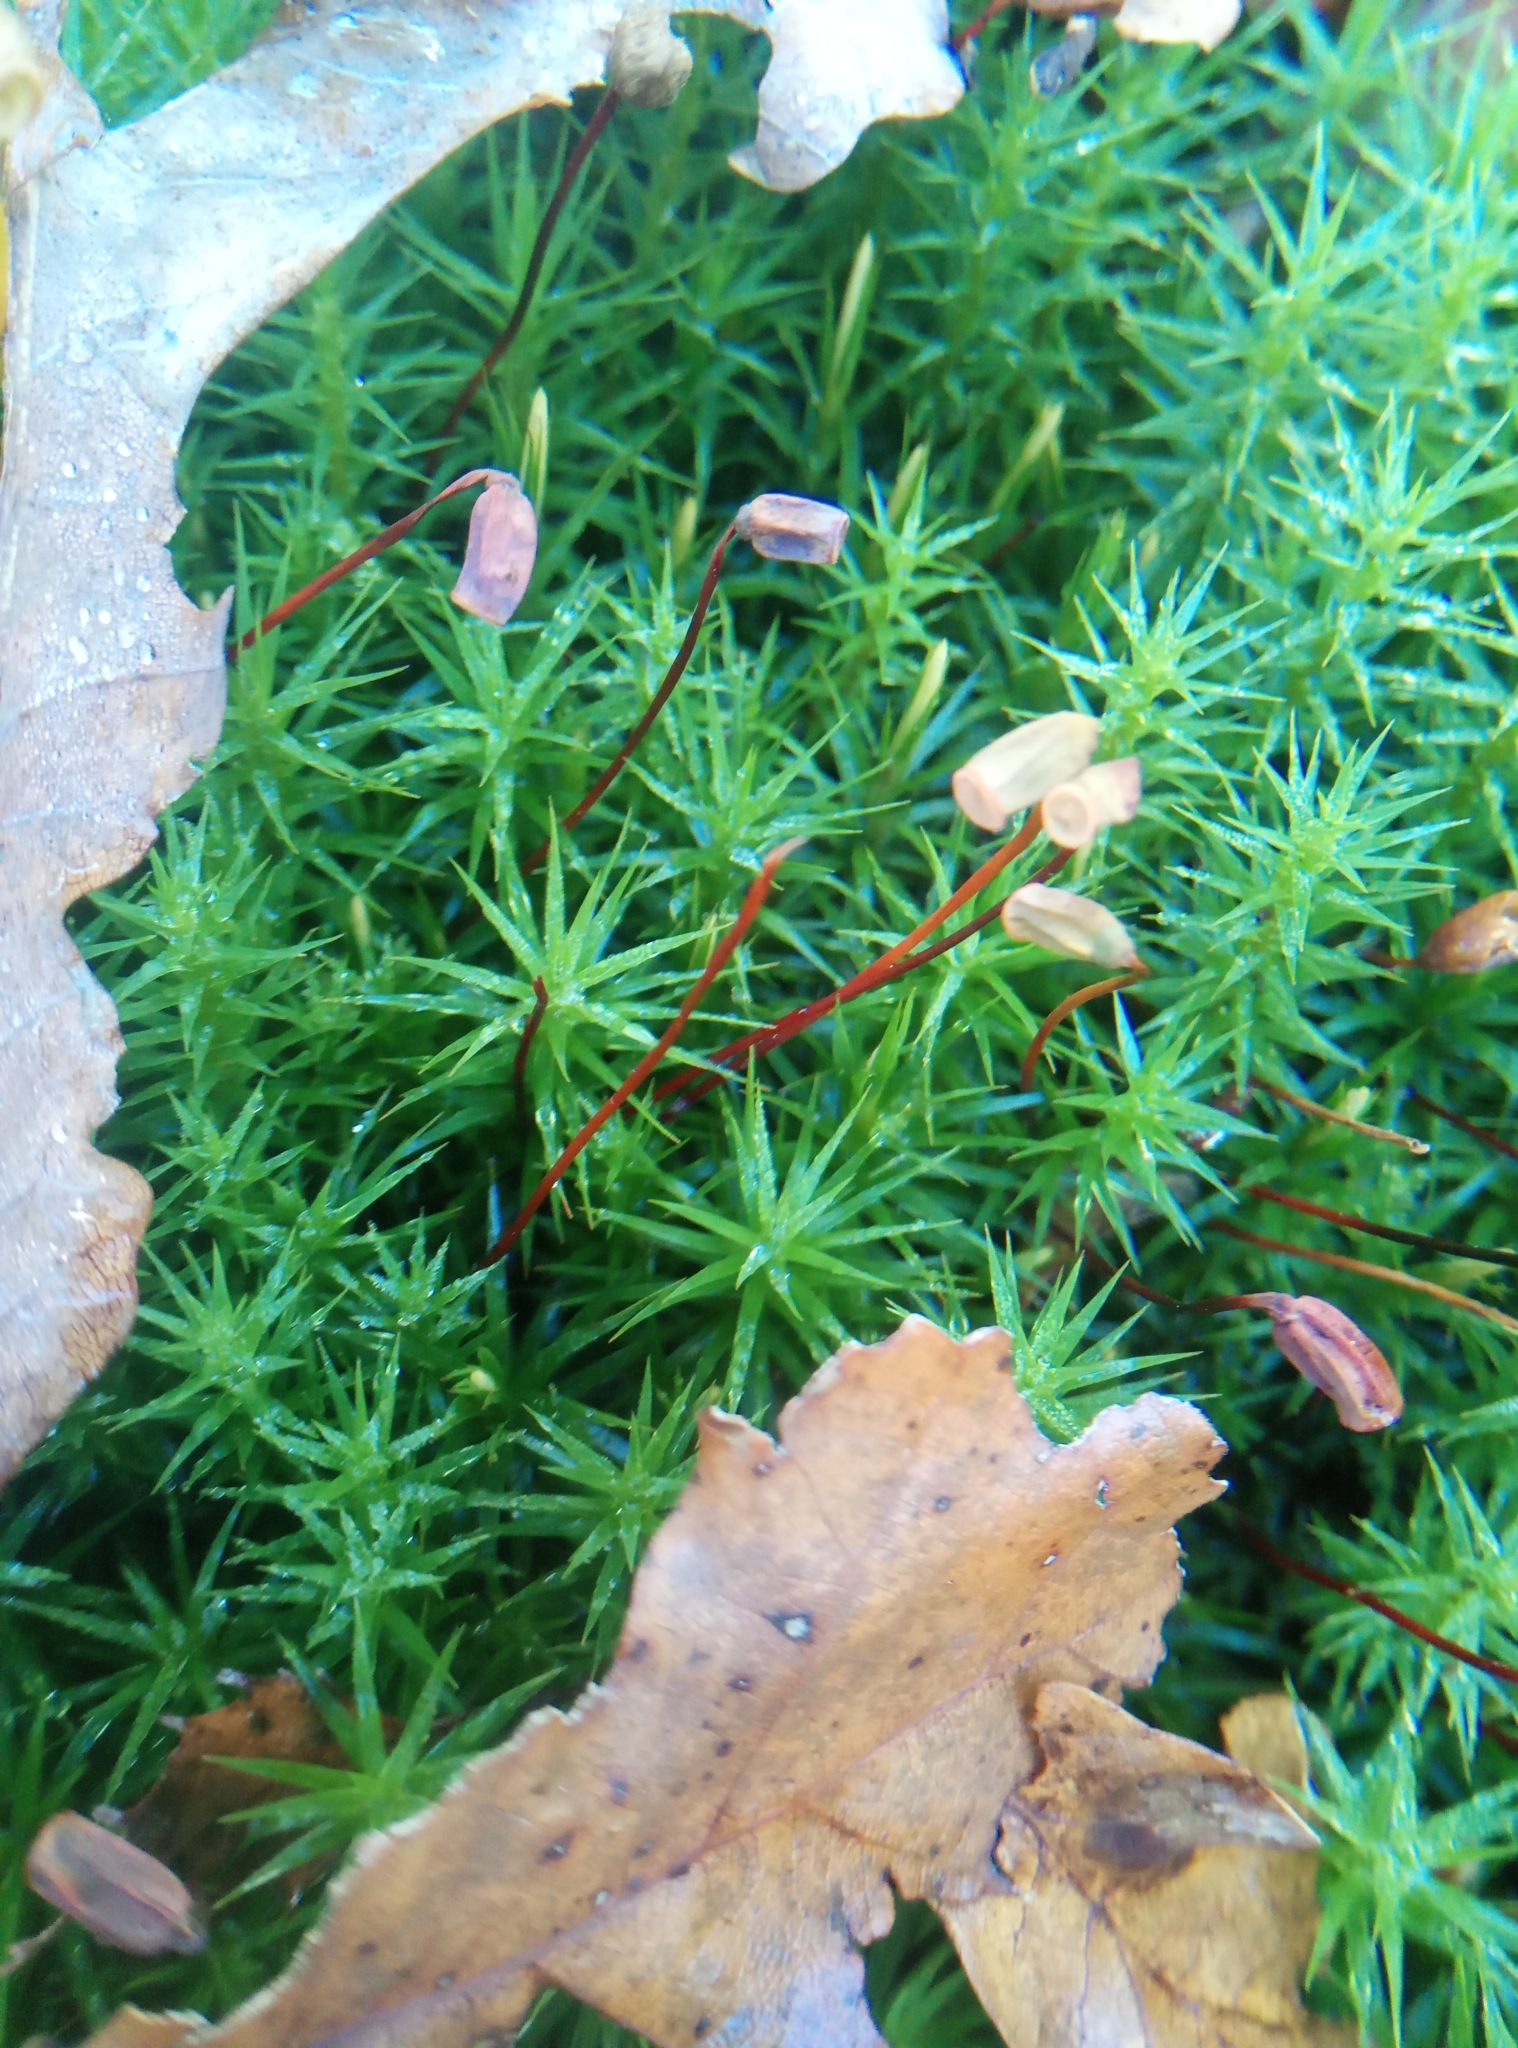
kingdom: Plantae
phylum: Bryophyta
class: Polytrichopsida
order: Polytrichales
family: Polytrichaceae
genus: Polytrichum
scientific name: Polytrichum formosum
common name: Bank haircap moss
